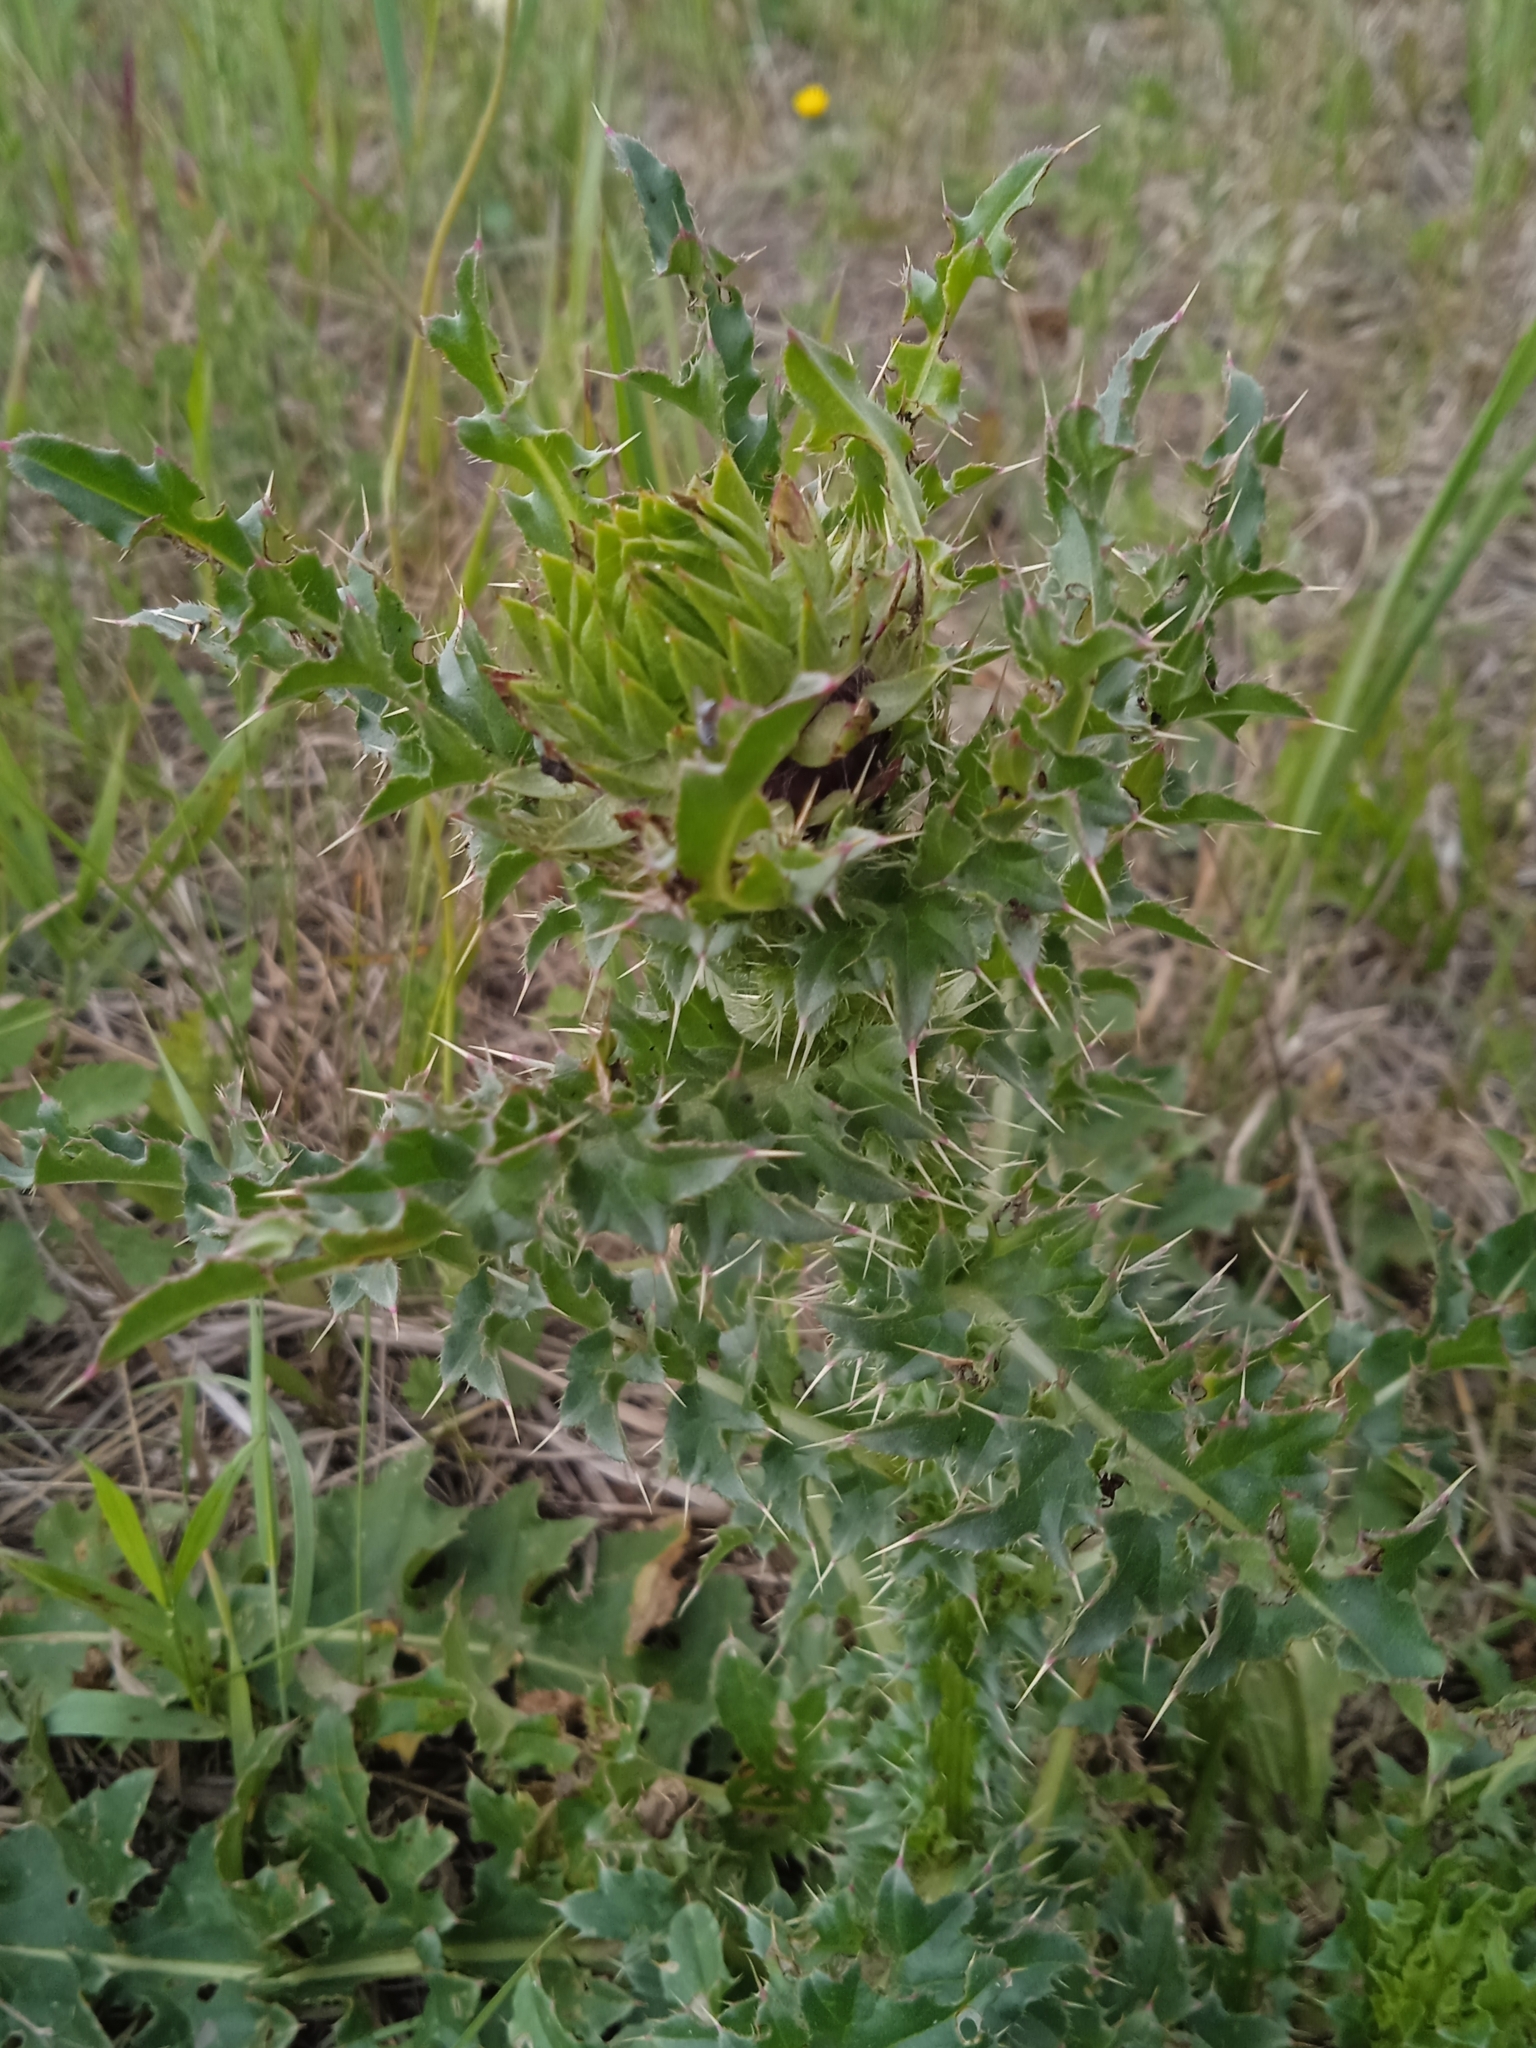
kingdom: Plantae
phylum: Tracheophyta
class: Magnoliopsida
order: Asterales
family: Asteraceae
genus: Carduus
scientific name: Carduus nutans
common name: Musk thistle
